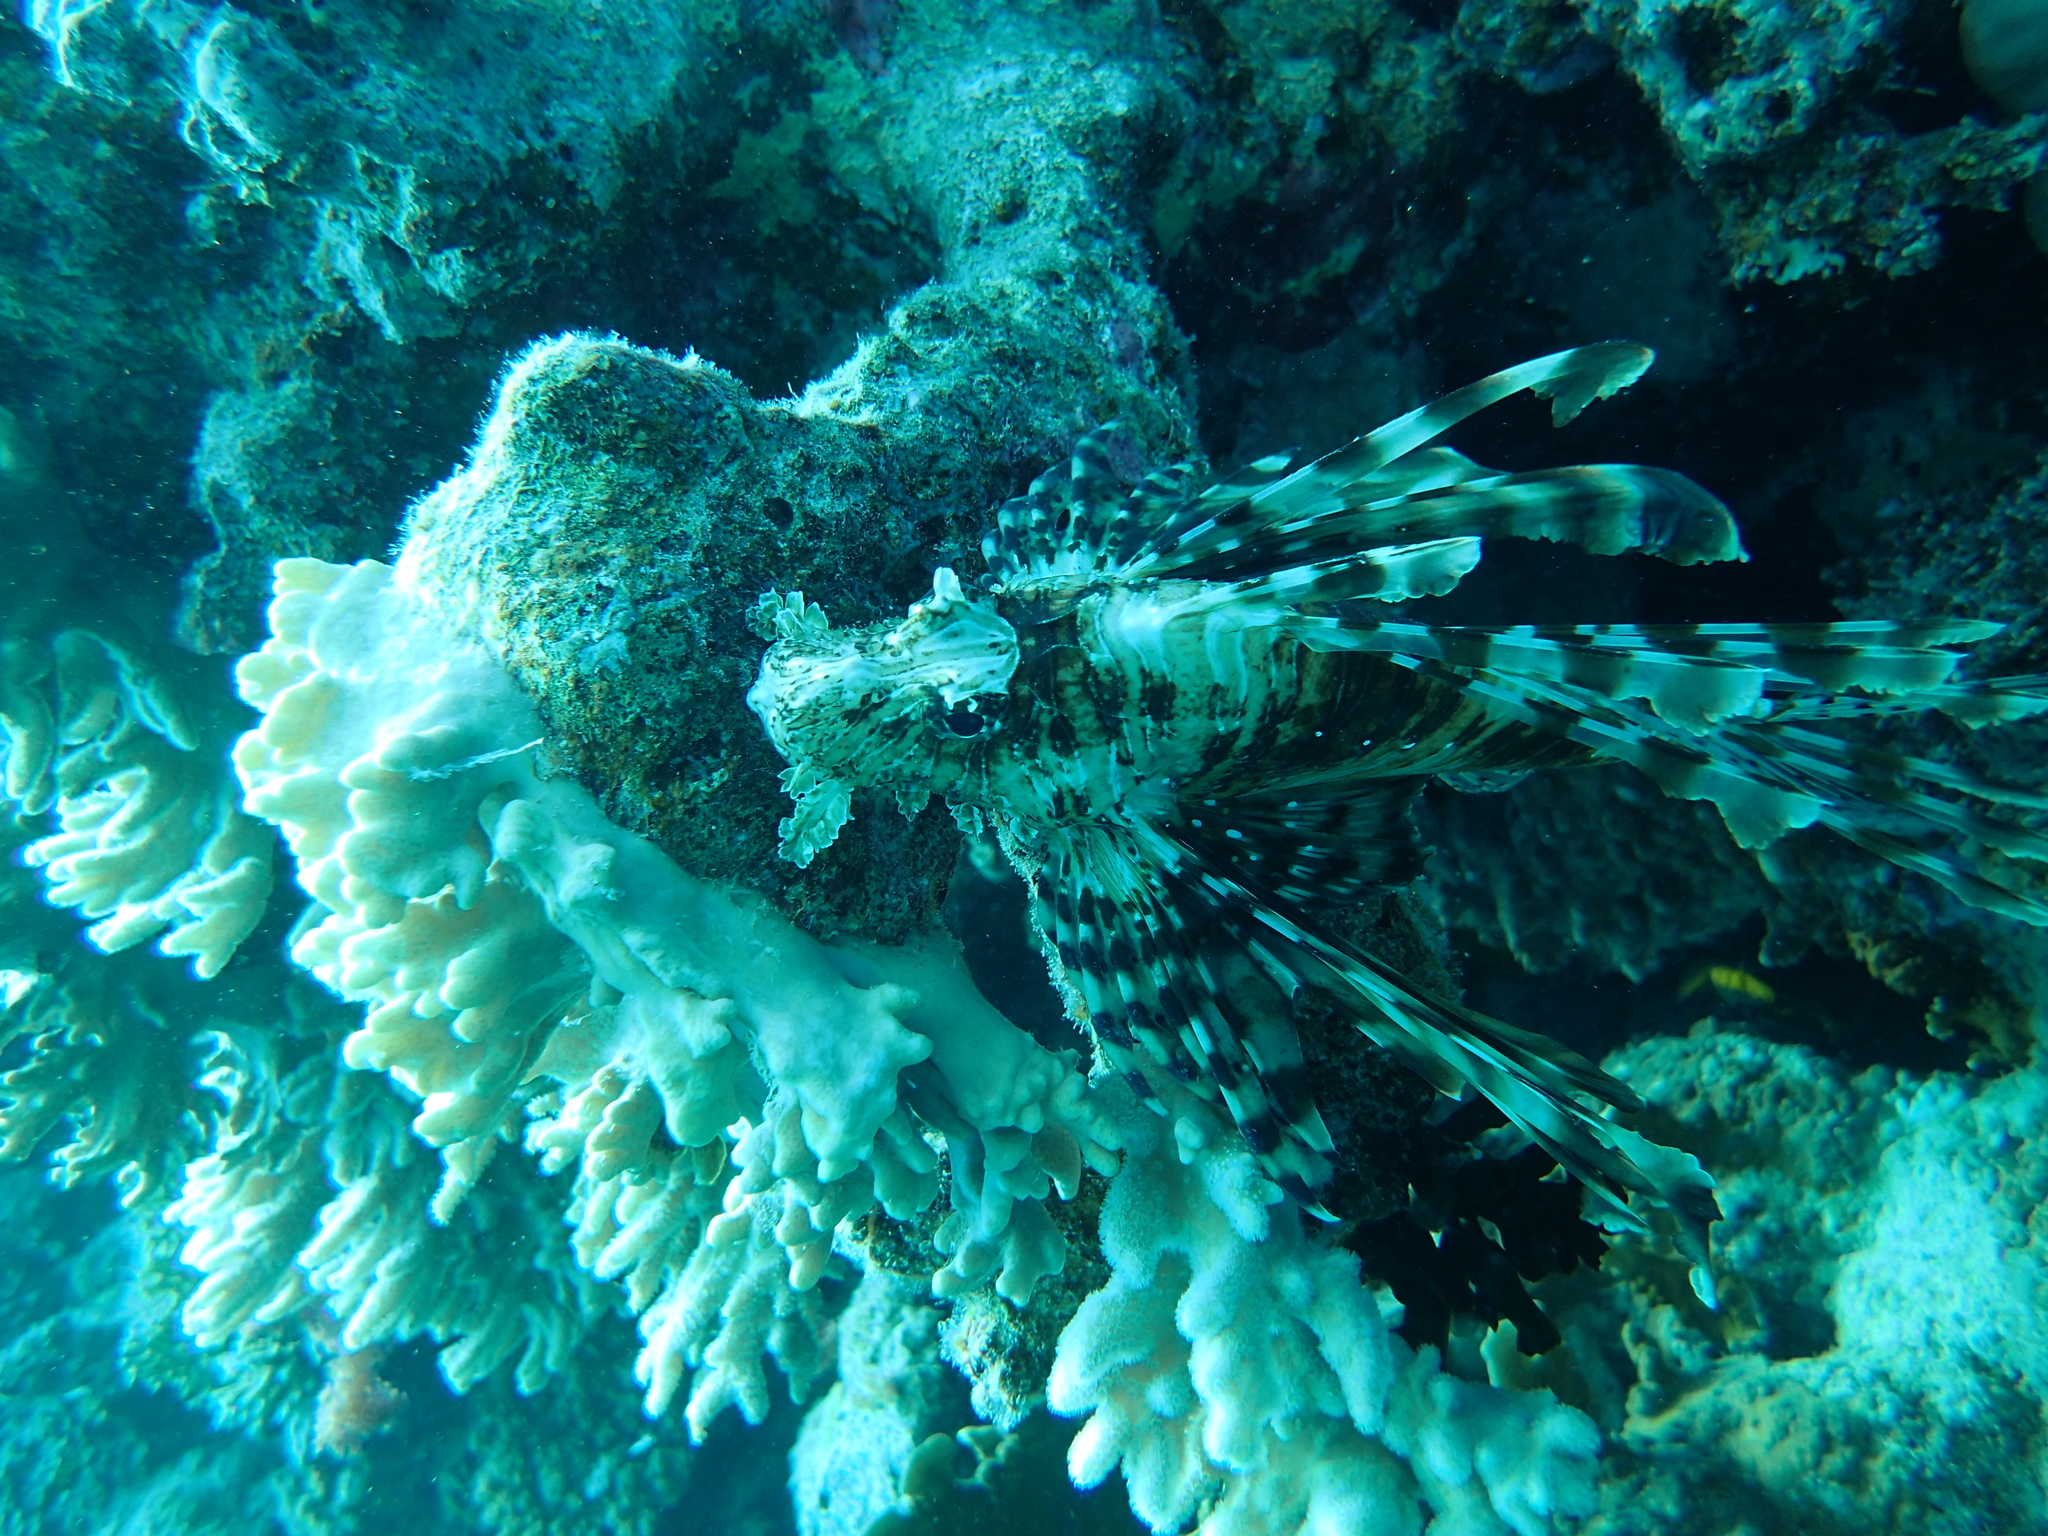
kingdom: Animalia
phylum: Chordata
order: Scorpaeniformes
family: Scorpaenidae
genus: Pterois
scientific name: Pterois miles
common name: Devil firefish
